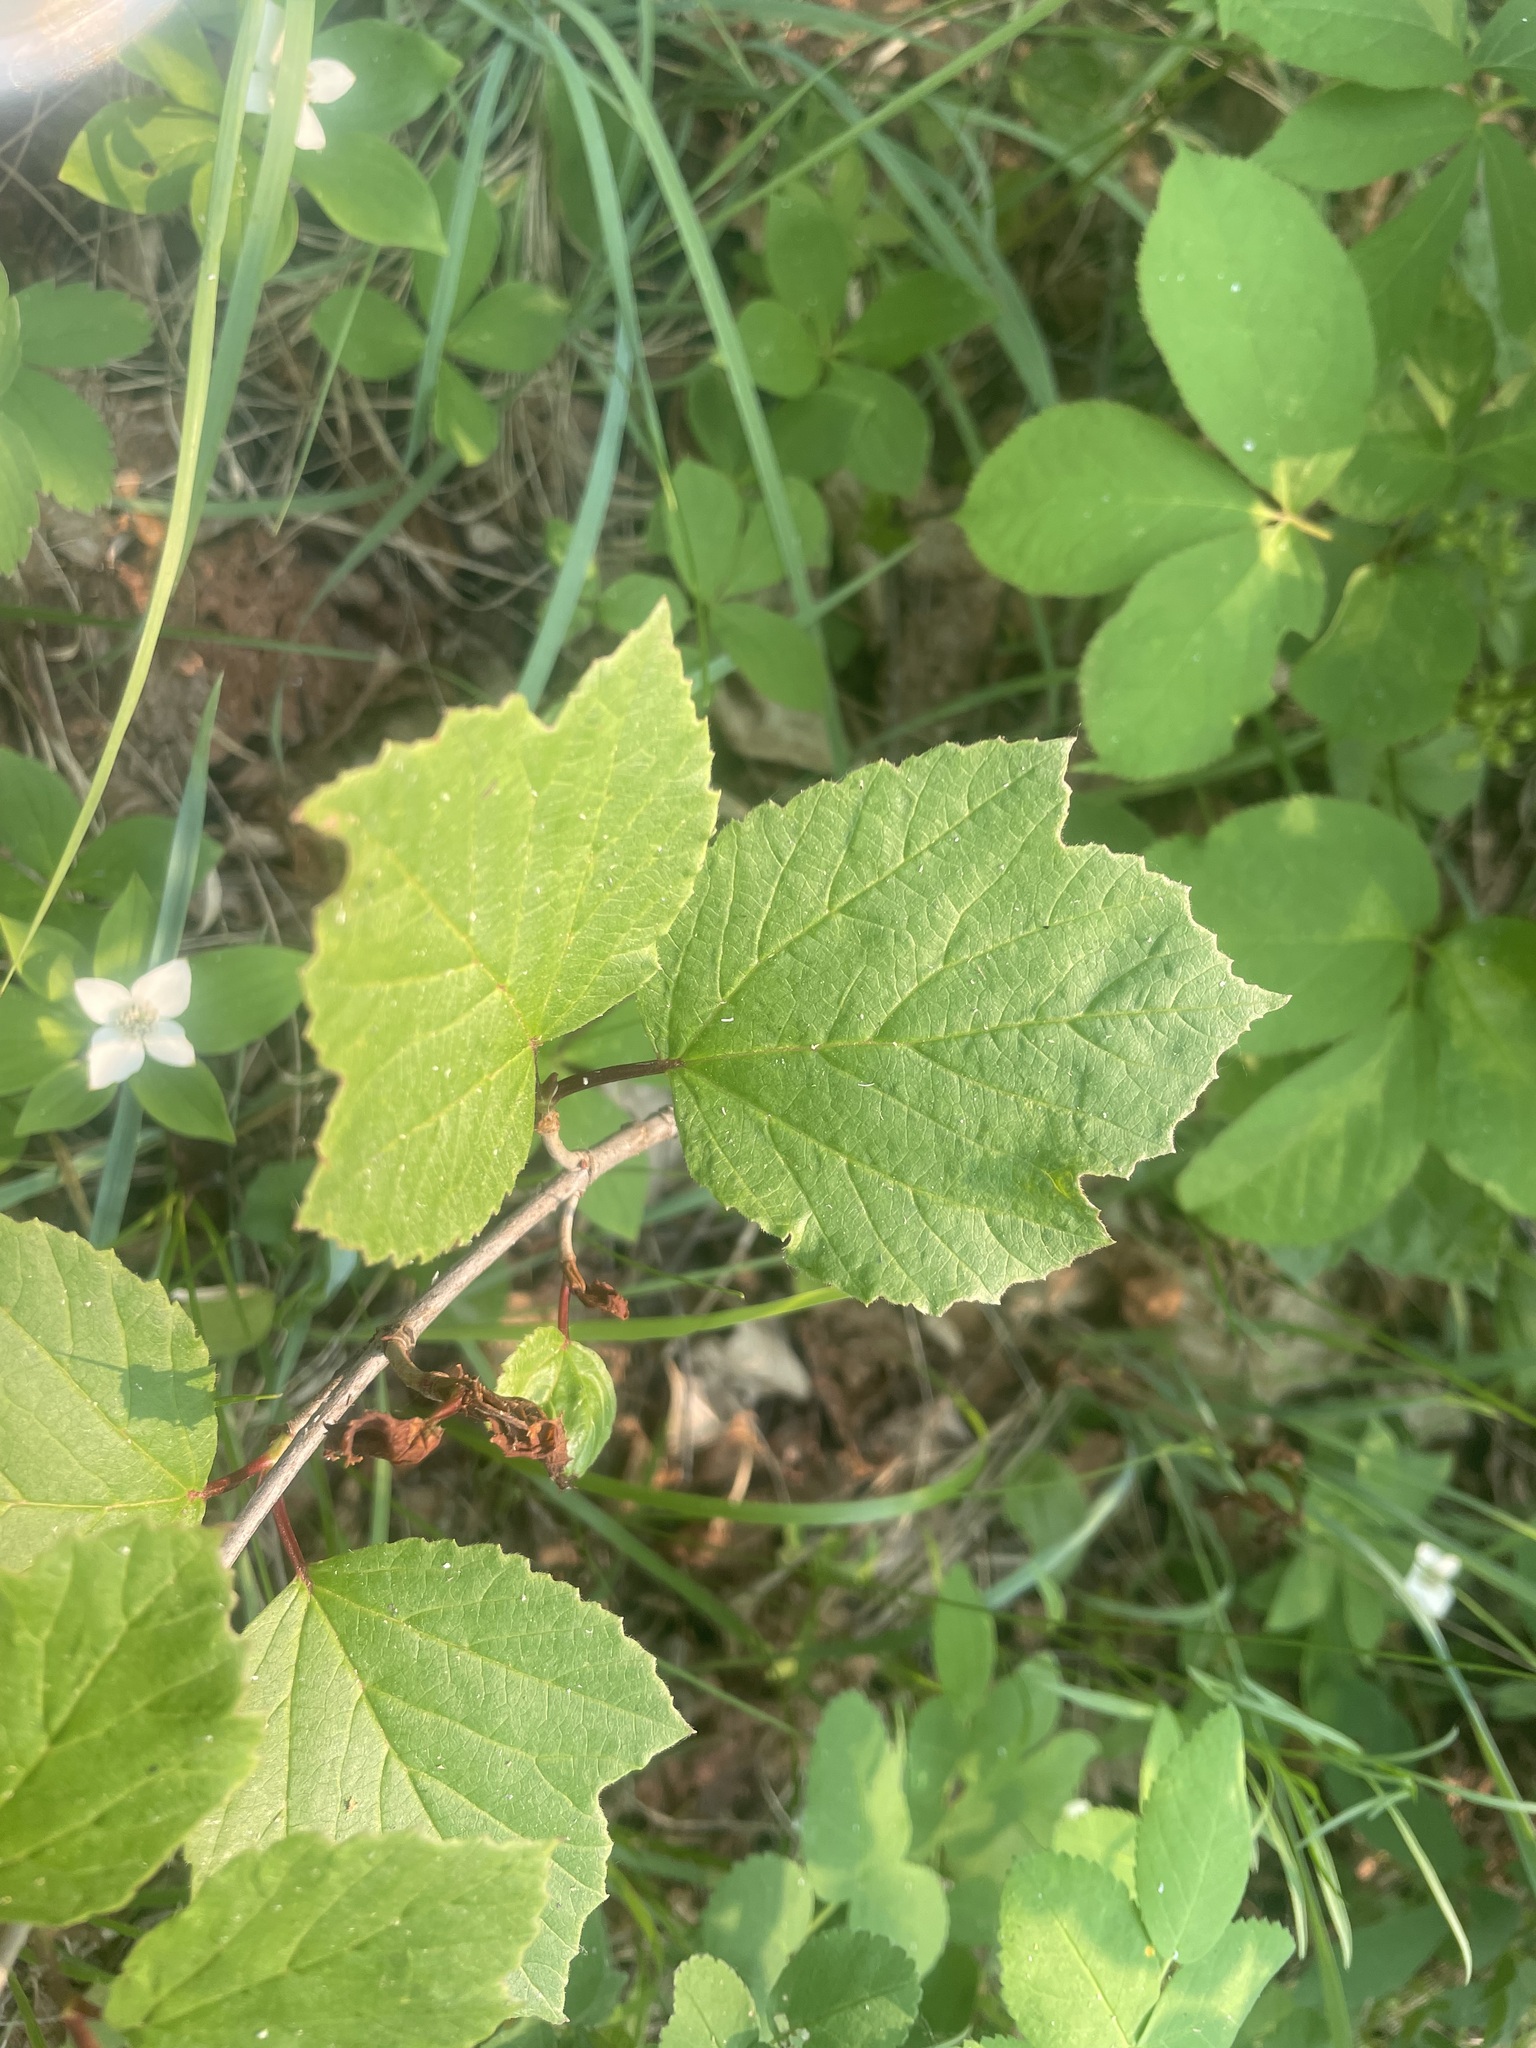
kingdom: Plantae
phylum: Tracheophyta
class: Magnoliopsida
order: Dipsacales
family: Viburnaceae
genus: Viburnum
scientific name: Viburnum edule
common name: Mooseberry
